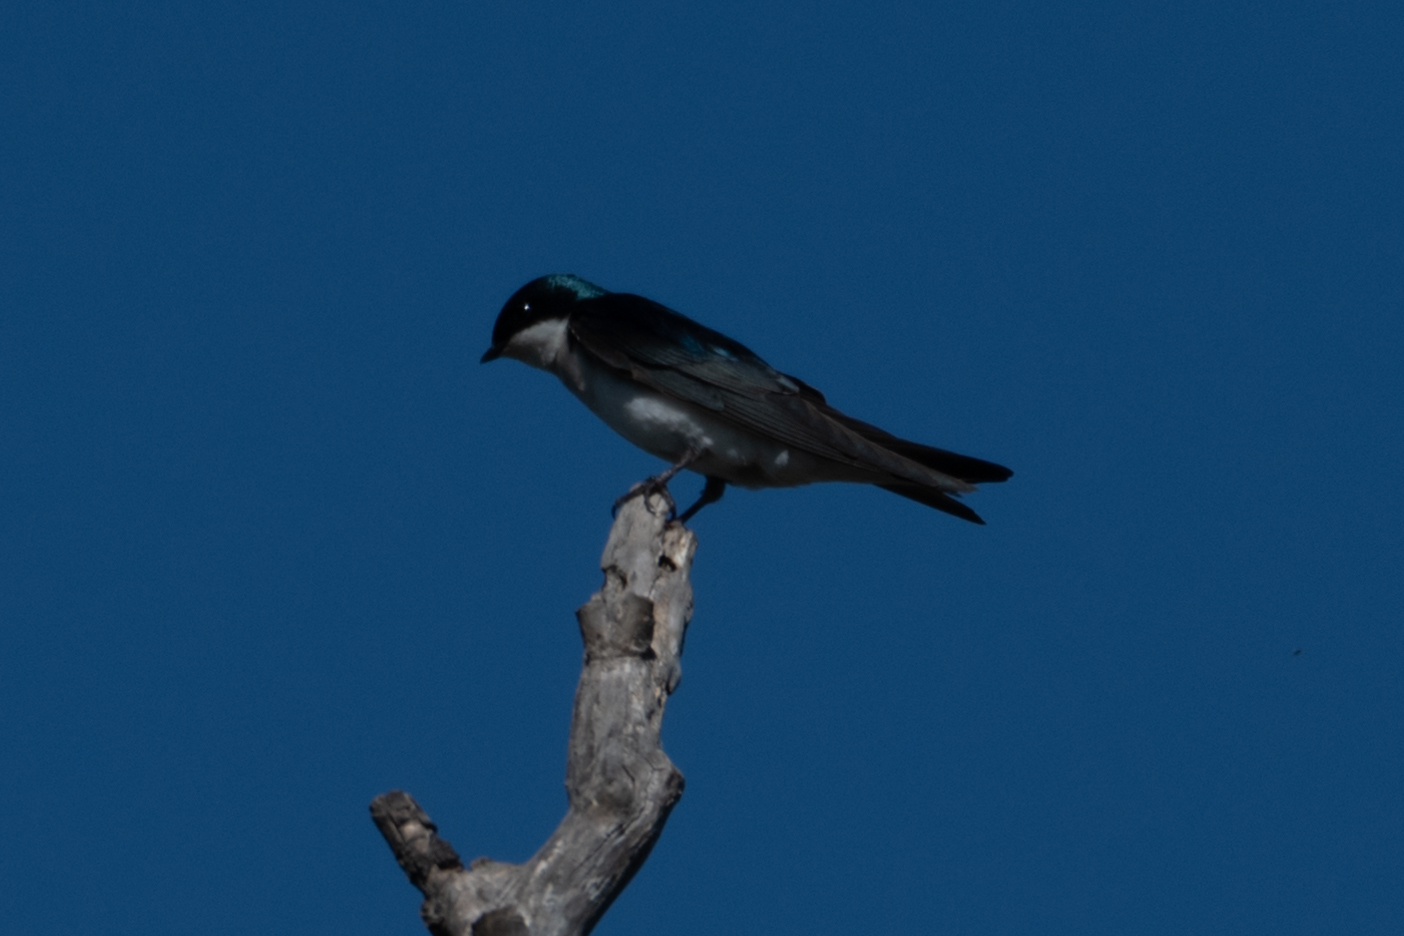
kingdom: Animalia
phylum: Chordata
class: Aves
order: Passeriformes
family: Hirundinidae
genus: Tachycineta
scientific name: Tachycineta bicolor
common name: Tree swallow
